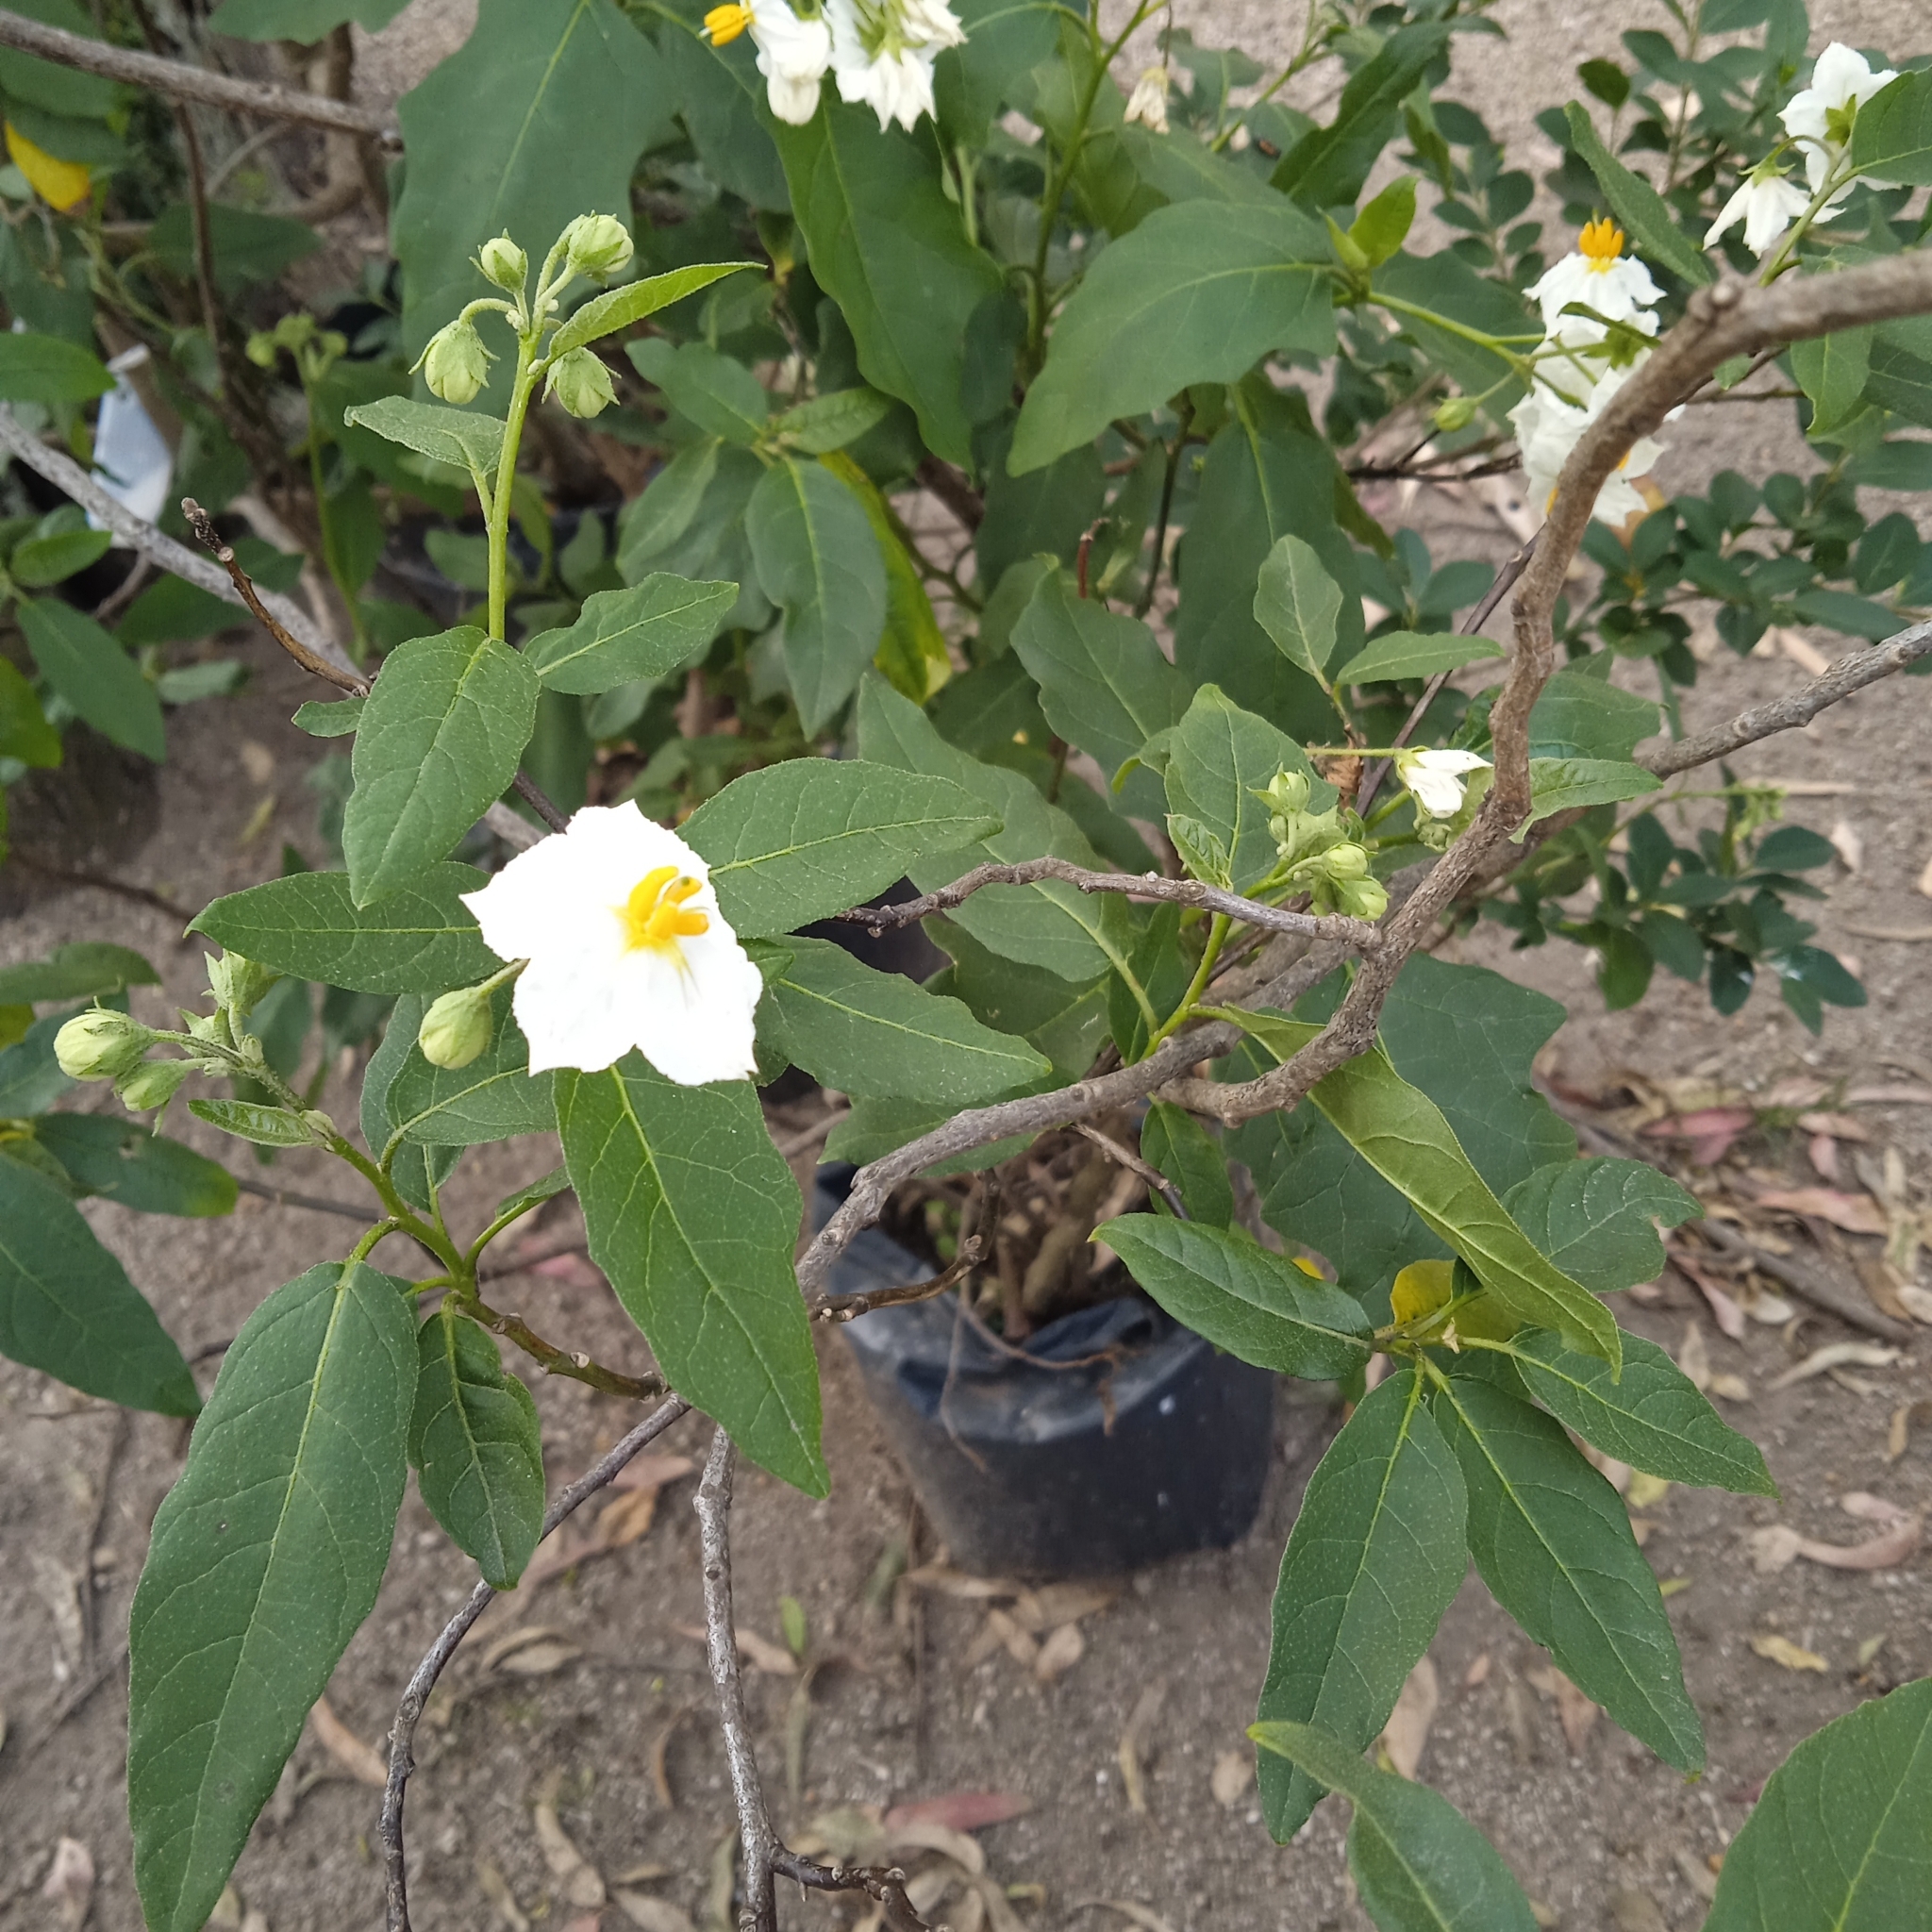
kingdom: Plantae
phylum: Tracheophyta
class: Magnoliopsida
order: Solanales
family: Solanaceae
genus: Solanum
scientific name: Solanum bonariense
